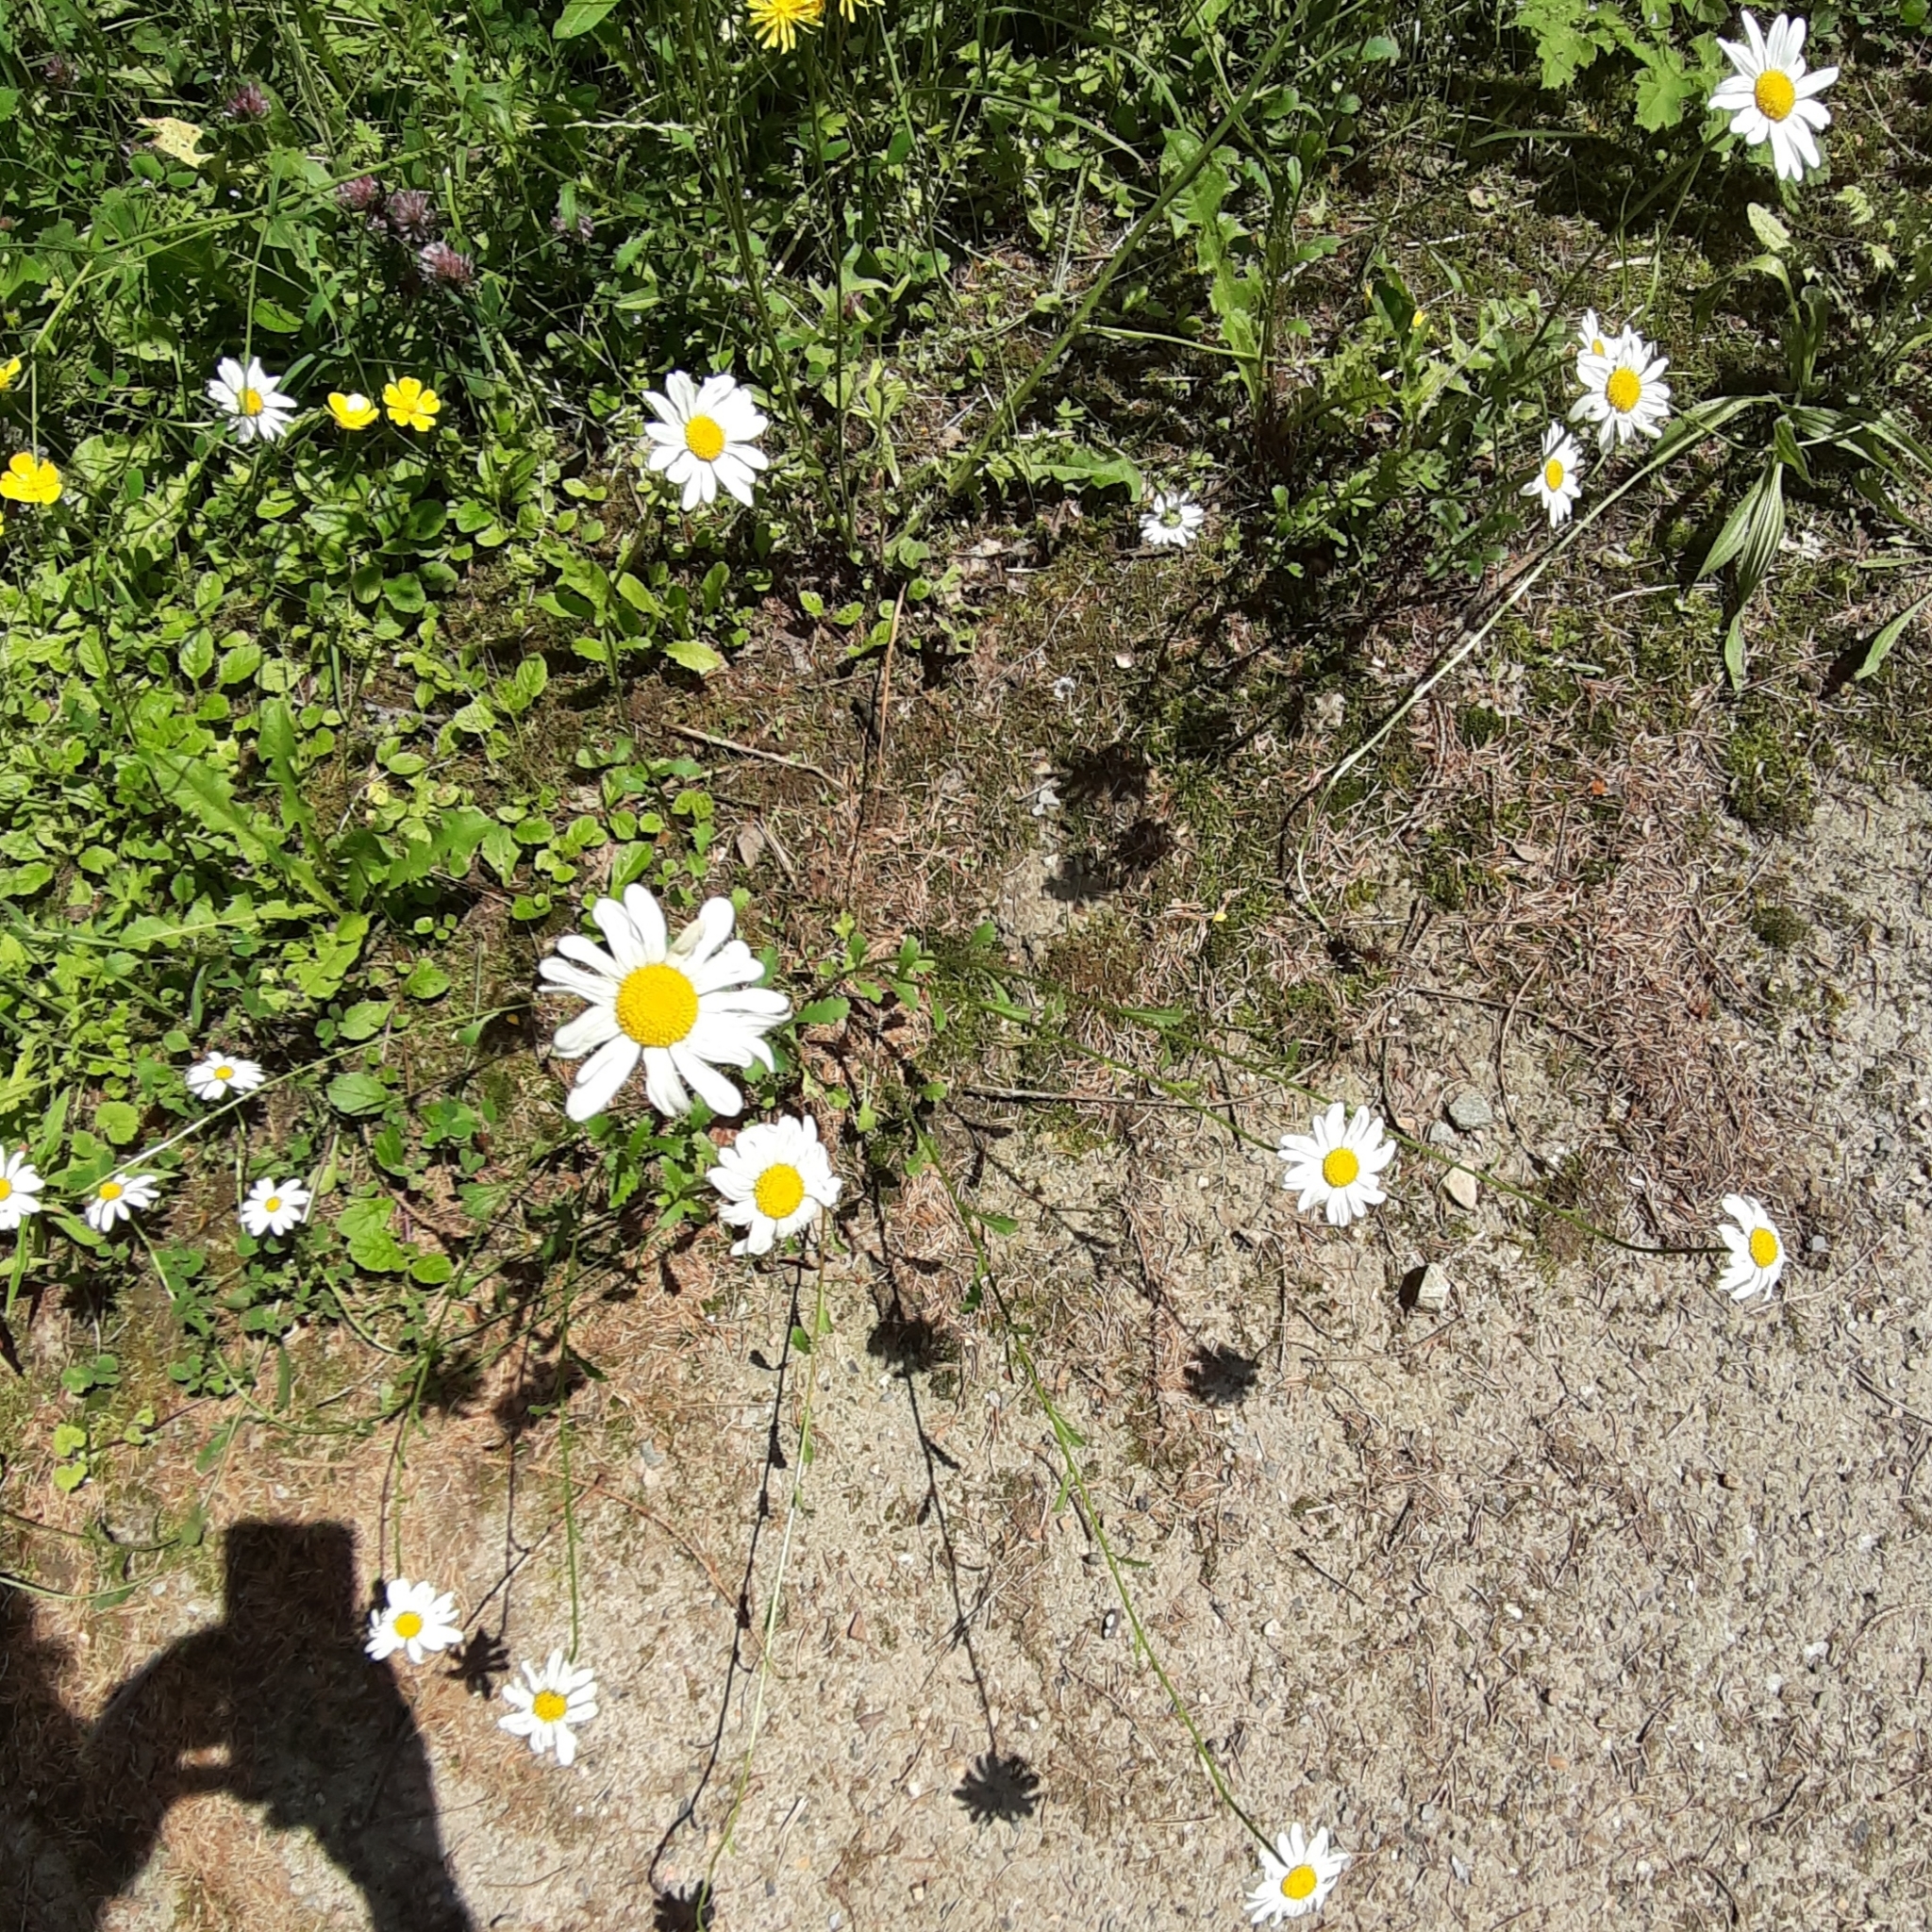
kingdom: Plantae
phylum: Tracheophyta
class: Magnoliopsida
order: Asterales
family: Asteraceae
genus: Leucanthemum
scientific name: Leucanthemum vulgare
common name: Oxeye daisy
